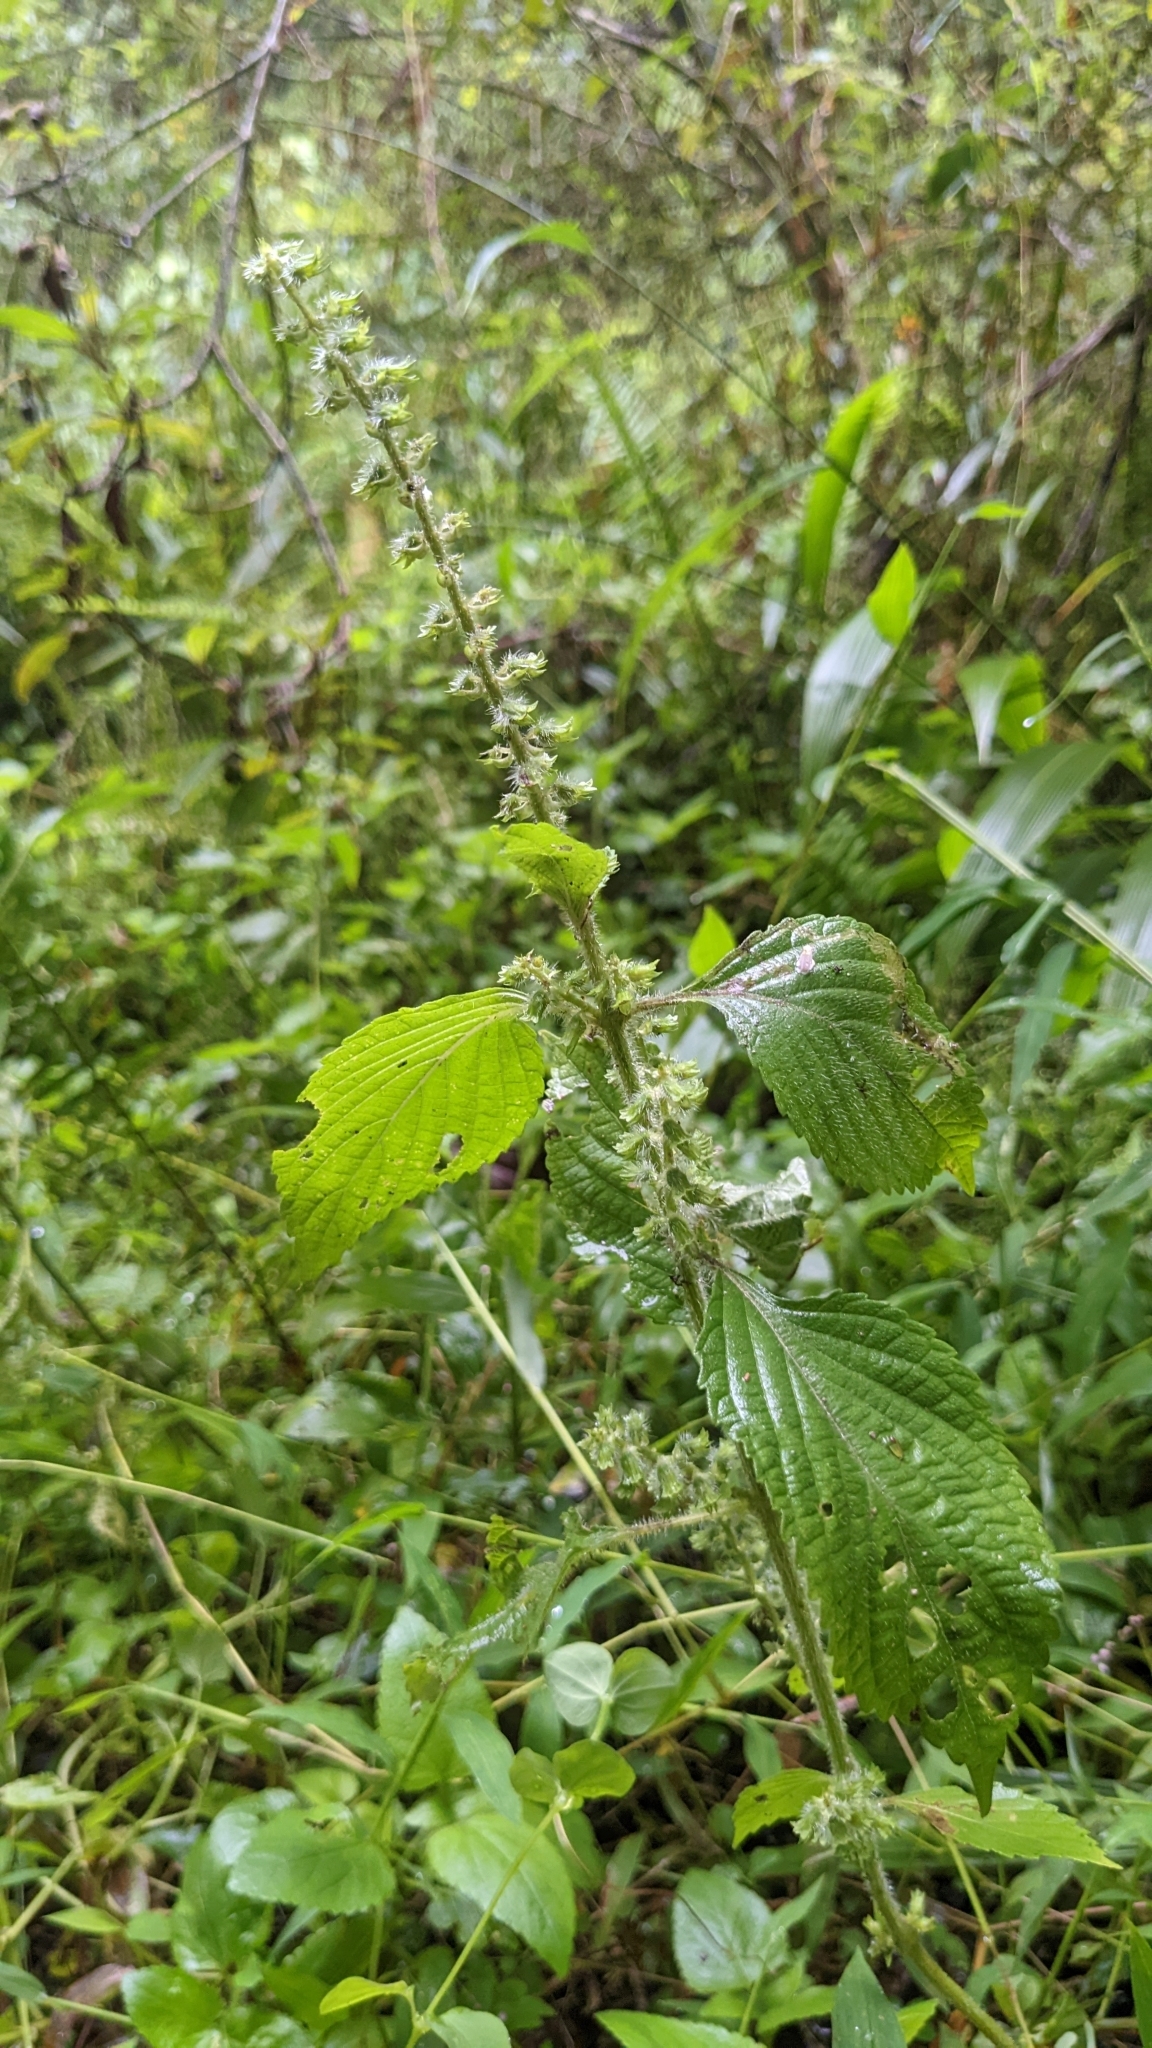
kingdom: Plantae
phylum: Tracheophyta
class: Magnoliopsida
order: Lamiales
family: Lamiaceae
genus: Perilla
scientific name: Perilla frutescens
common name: Perilla
